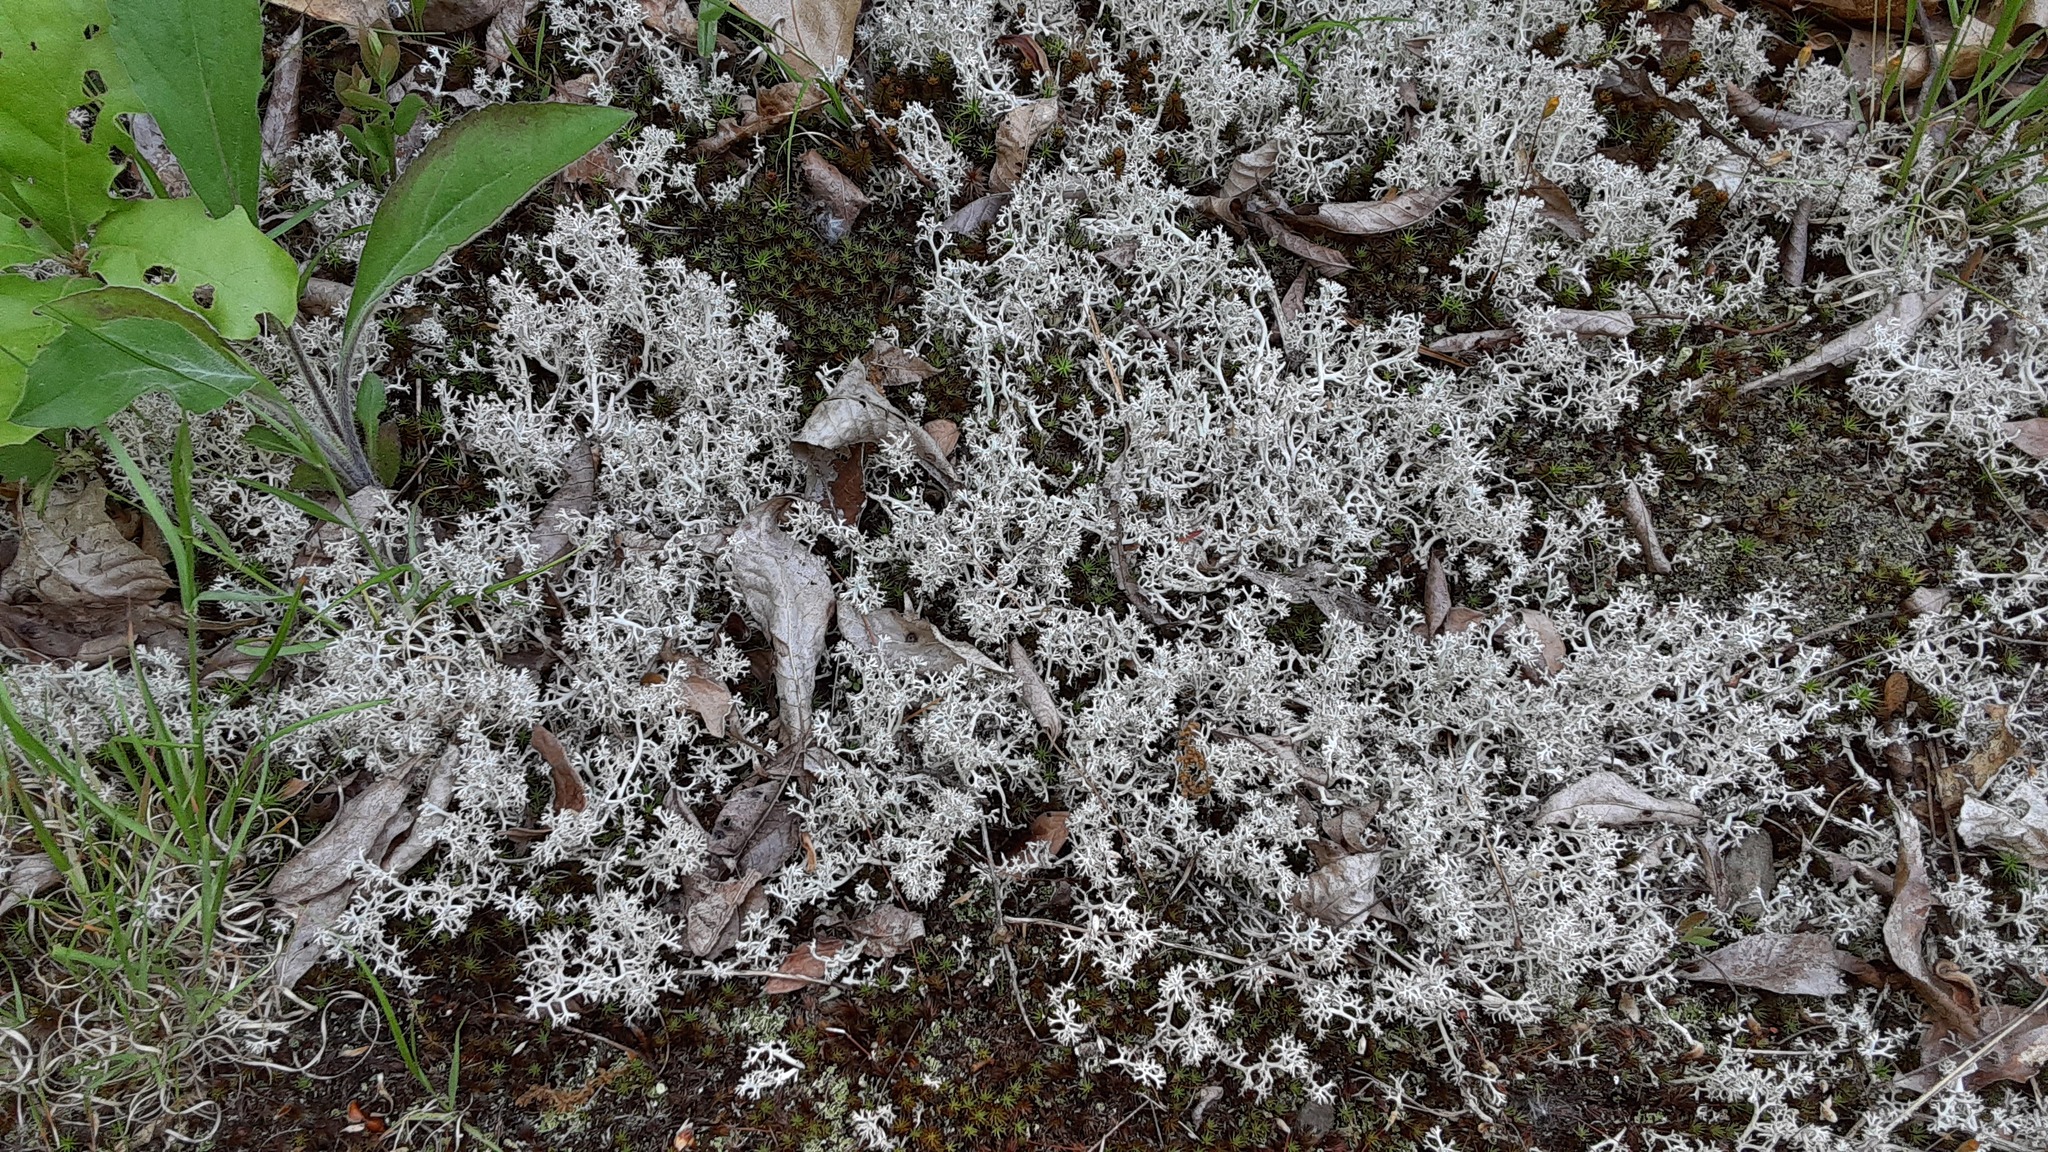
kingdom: Fungi
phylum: Ascomycota
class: Lecanoromycetes
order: Lecanorales
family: Cladoniaceae
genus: Cladonia
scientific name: Cladonia rangiferina
